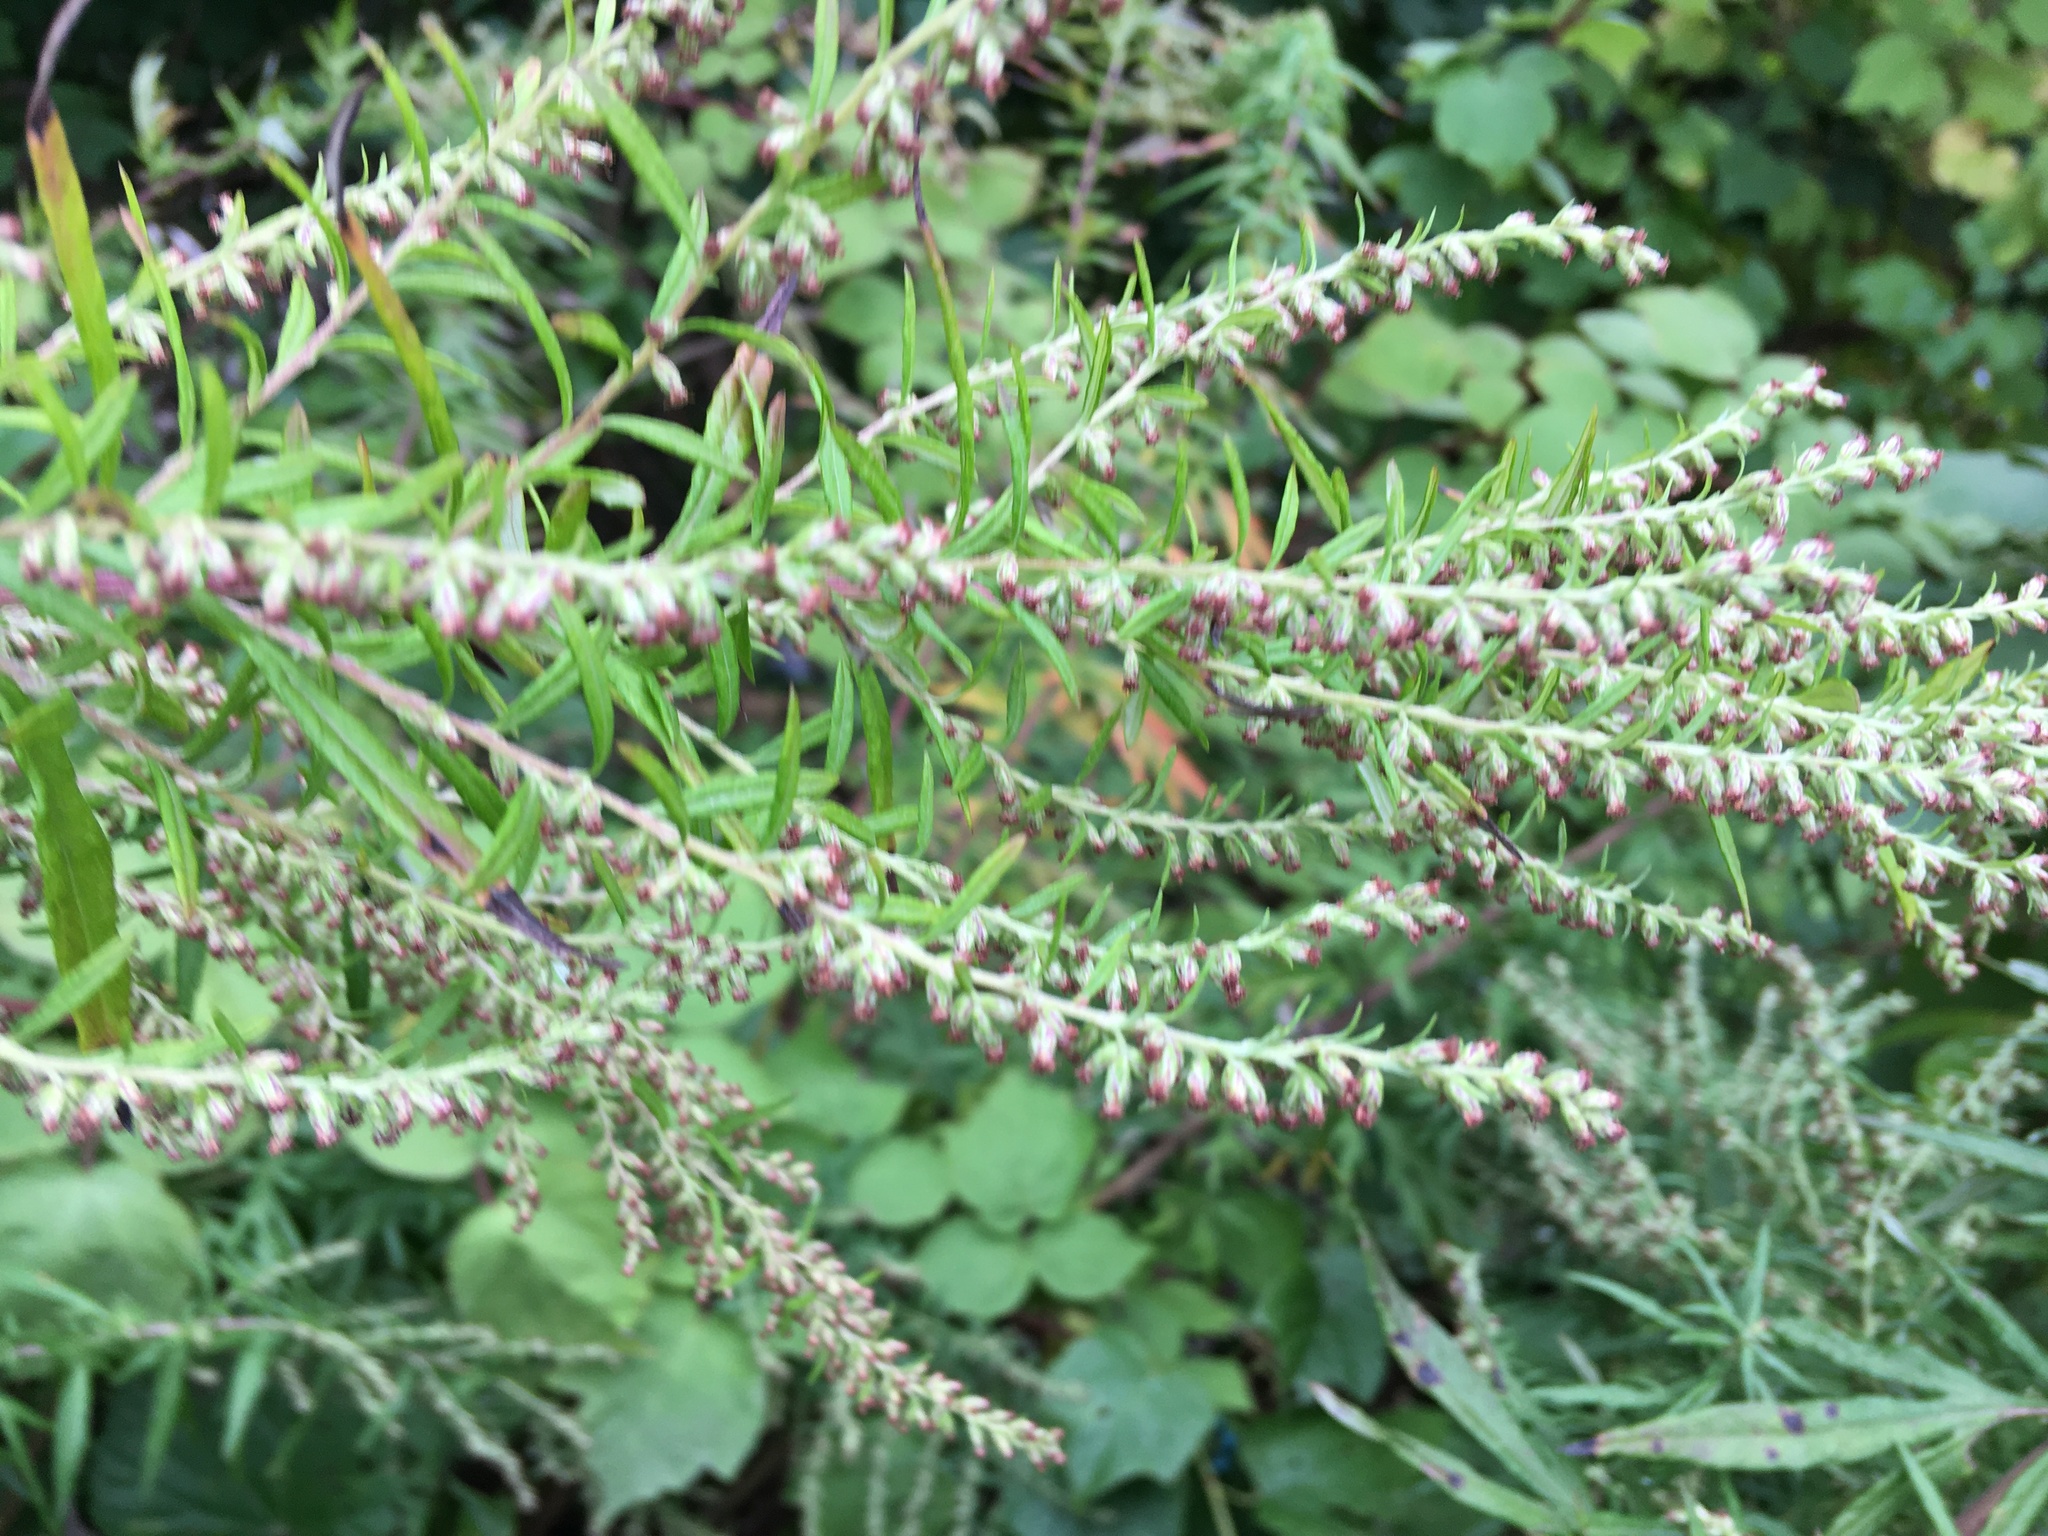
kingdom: Plantae
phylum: Tracheophyta
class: Magnoliopsida
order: Asterales
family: Asteraceae
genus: Artemisia
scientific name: Artemisia vulgaris
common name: Mugwort
